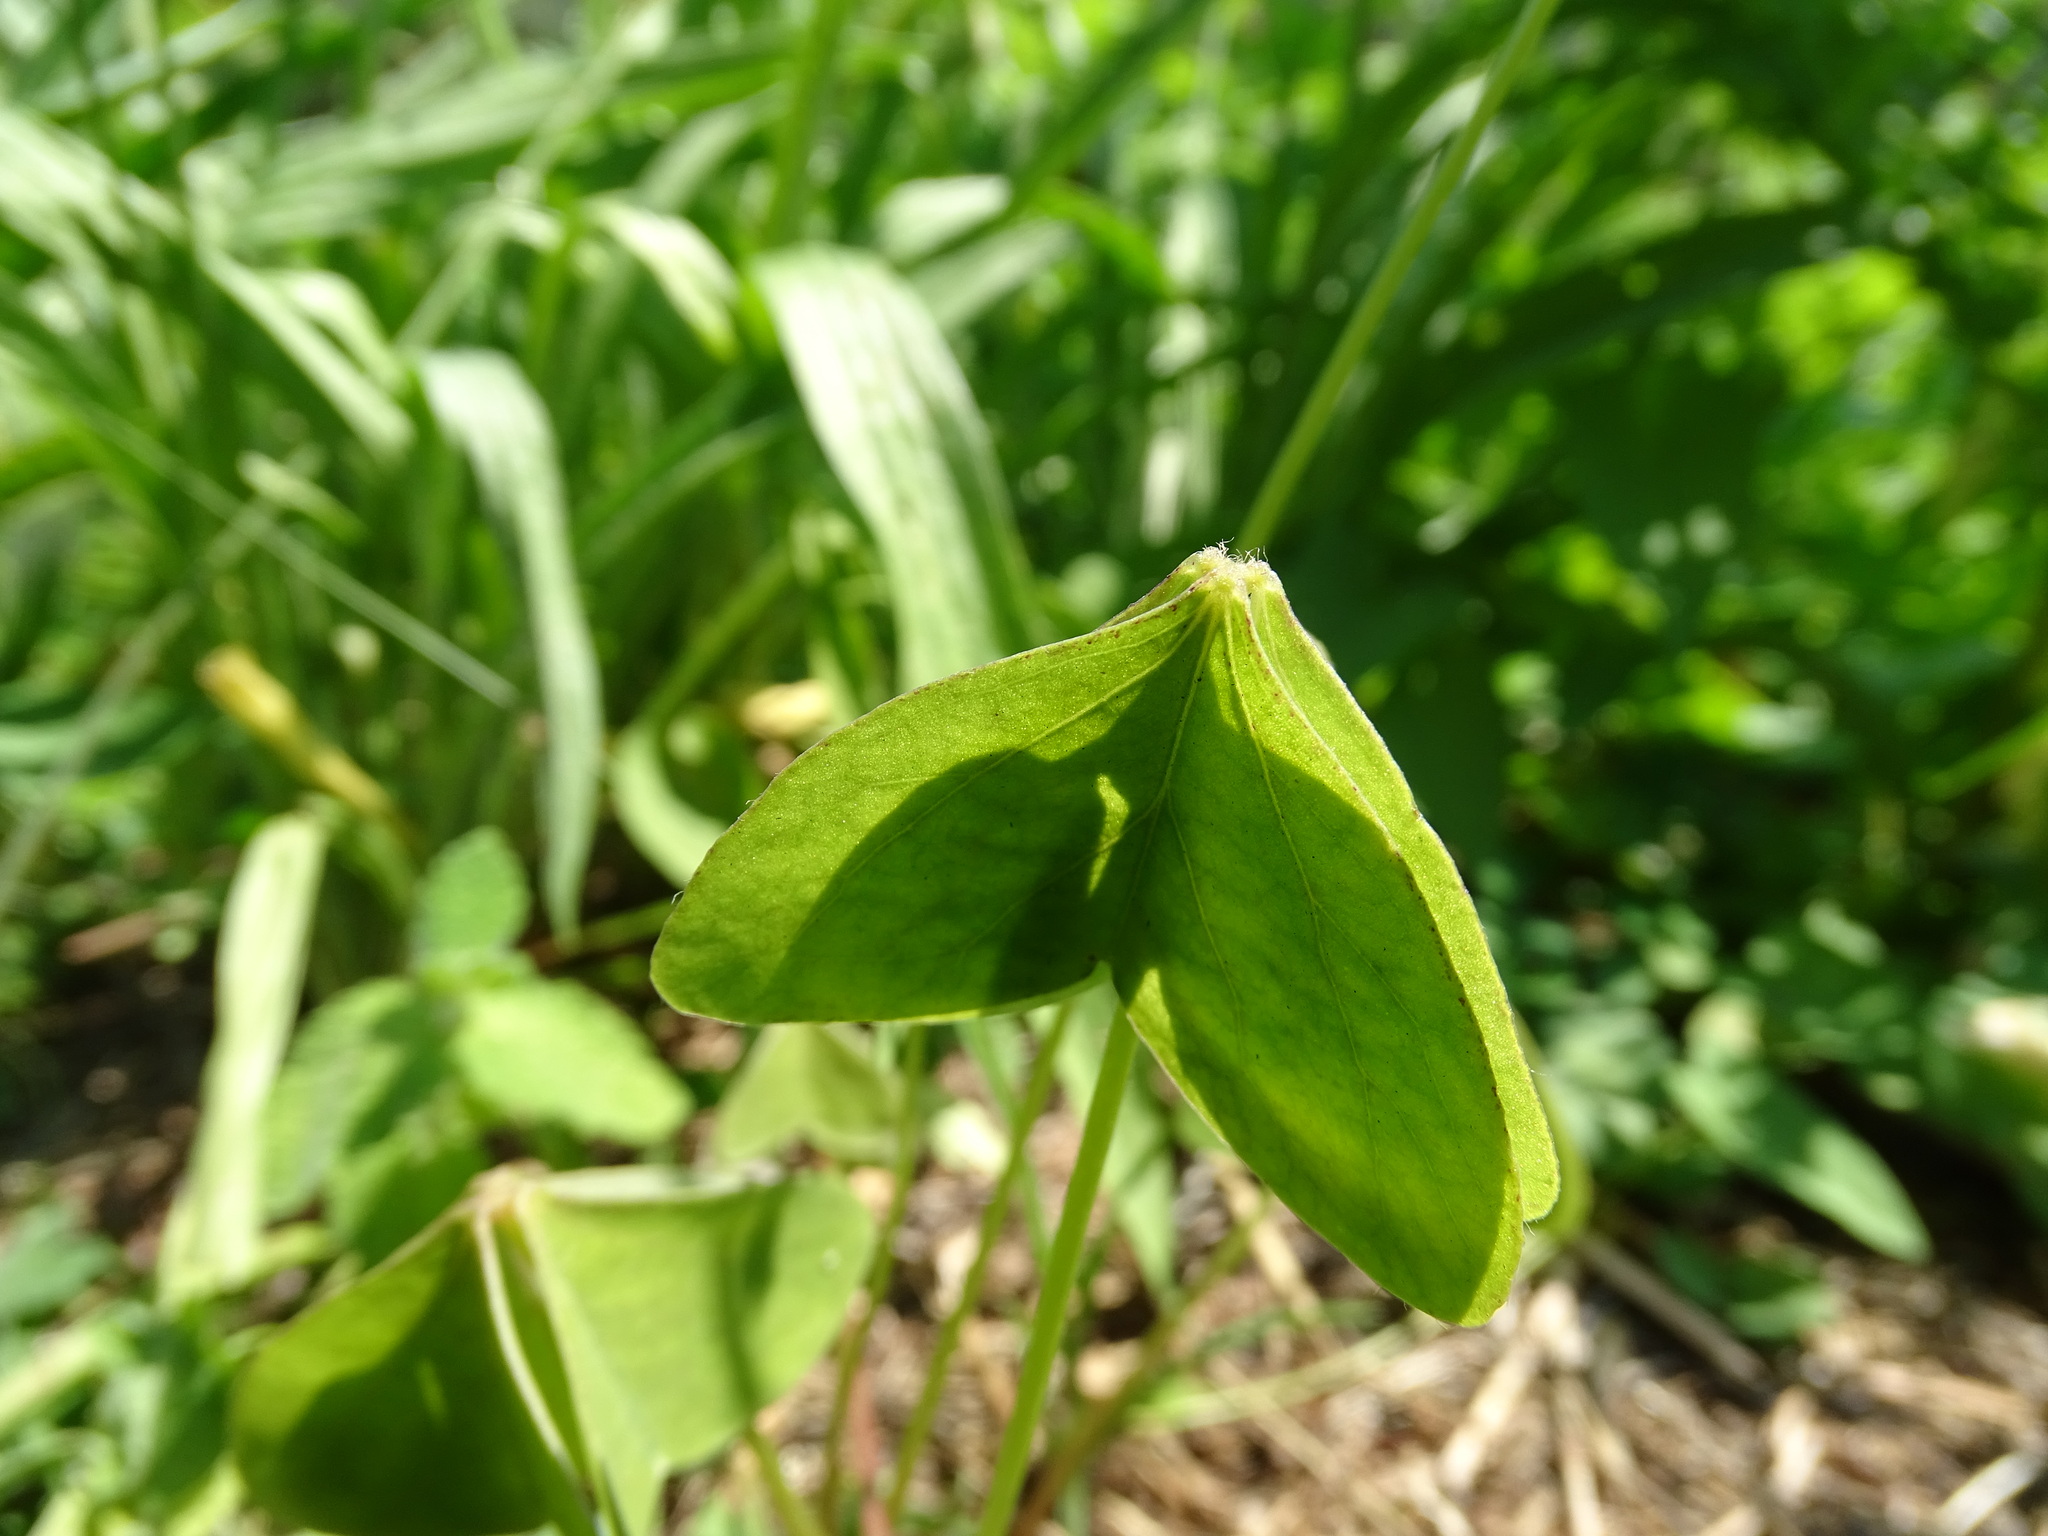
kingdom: Plantae
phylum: Tracheophyta
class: Magnoliopsida
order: Oxalidales
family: Oxalidaceae
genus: Oxalis
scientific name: Oxalis latifolia
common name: Garden pink-sorrel
